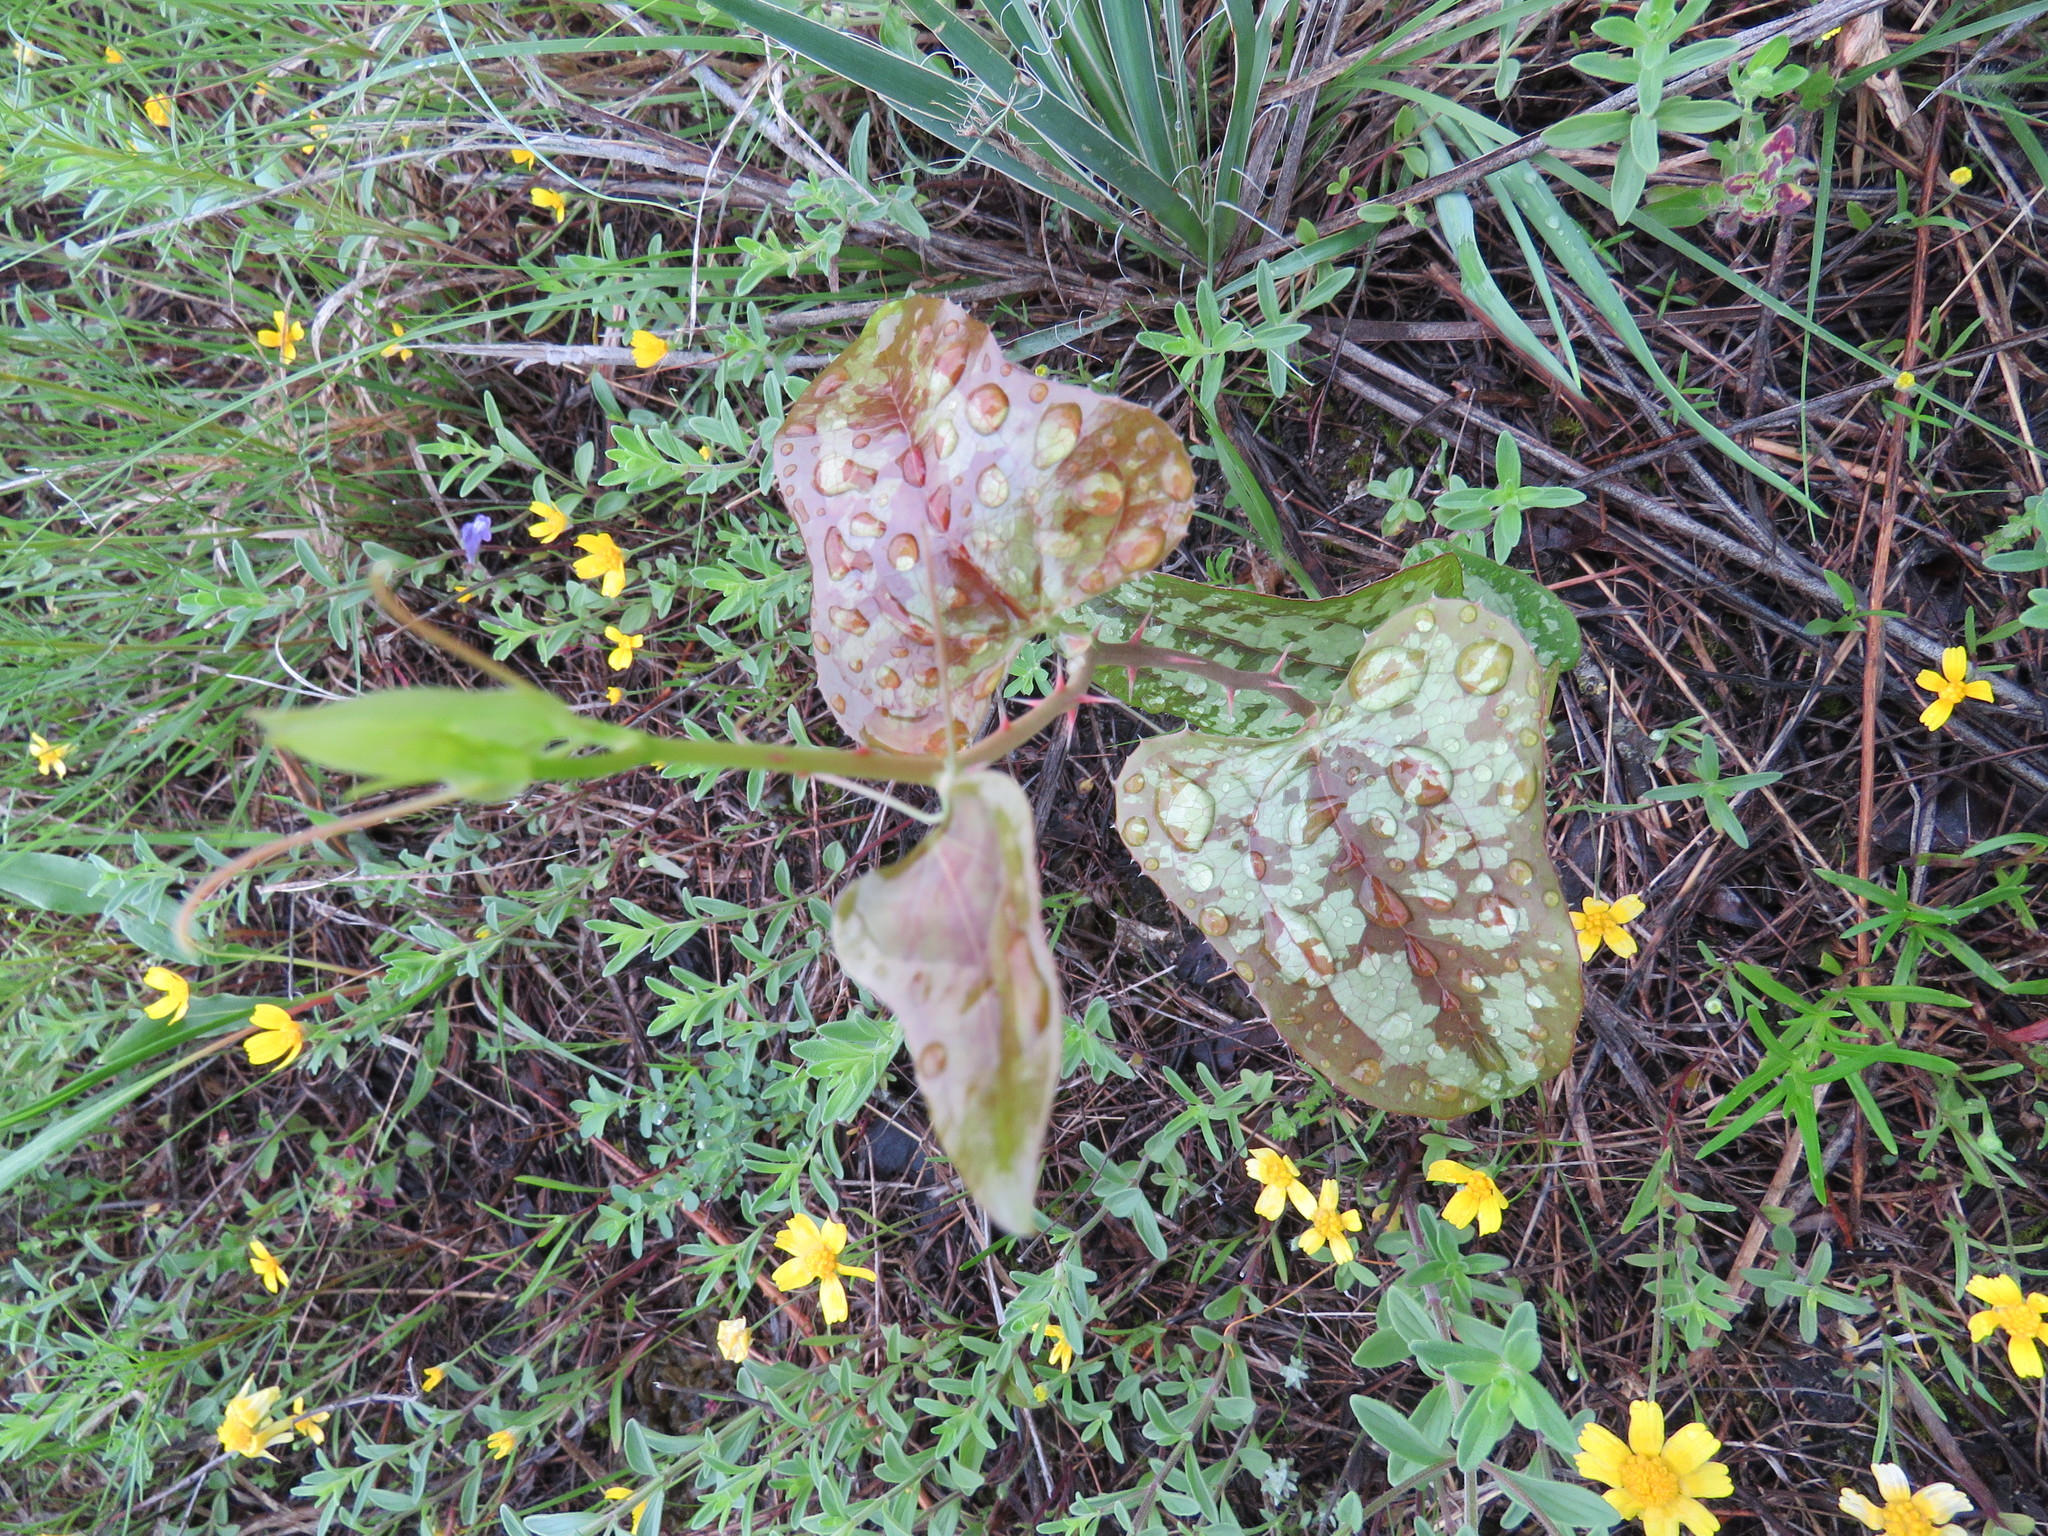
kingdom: Plantae
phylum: Tracheophyta
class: Liliopsida
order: Liliales
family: Smilacaceae
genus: Smilax
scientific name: Smilax bona-nox
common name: Catbrier
